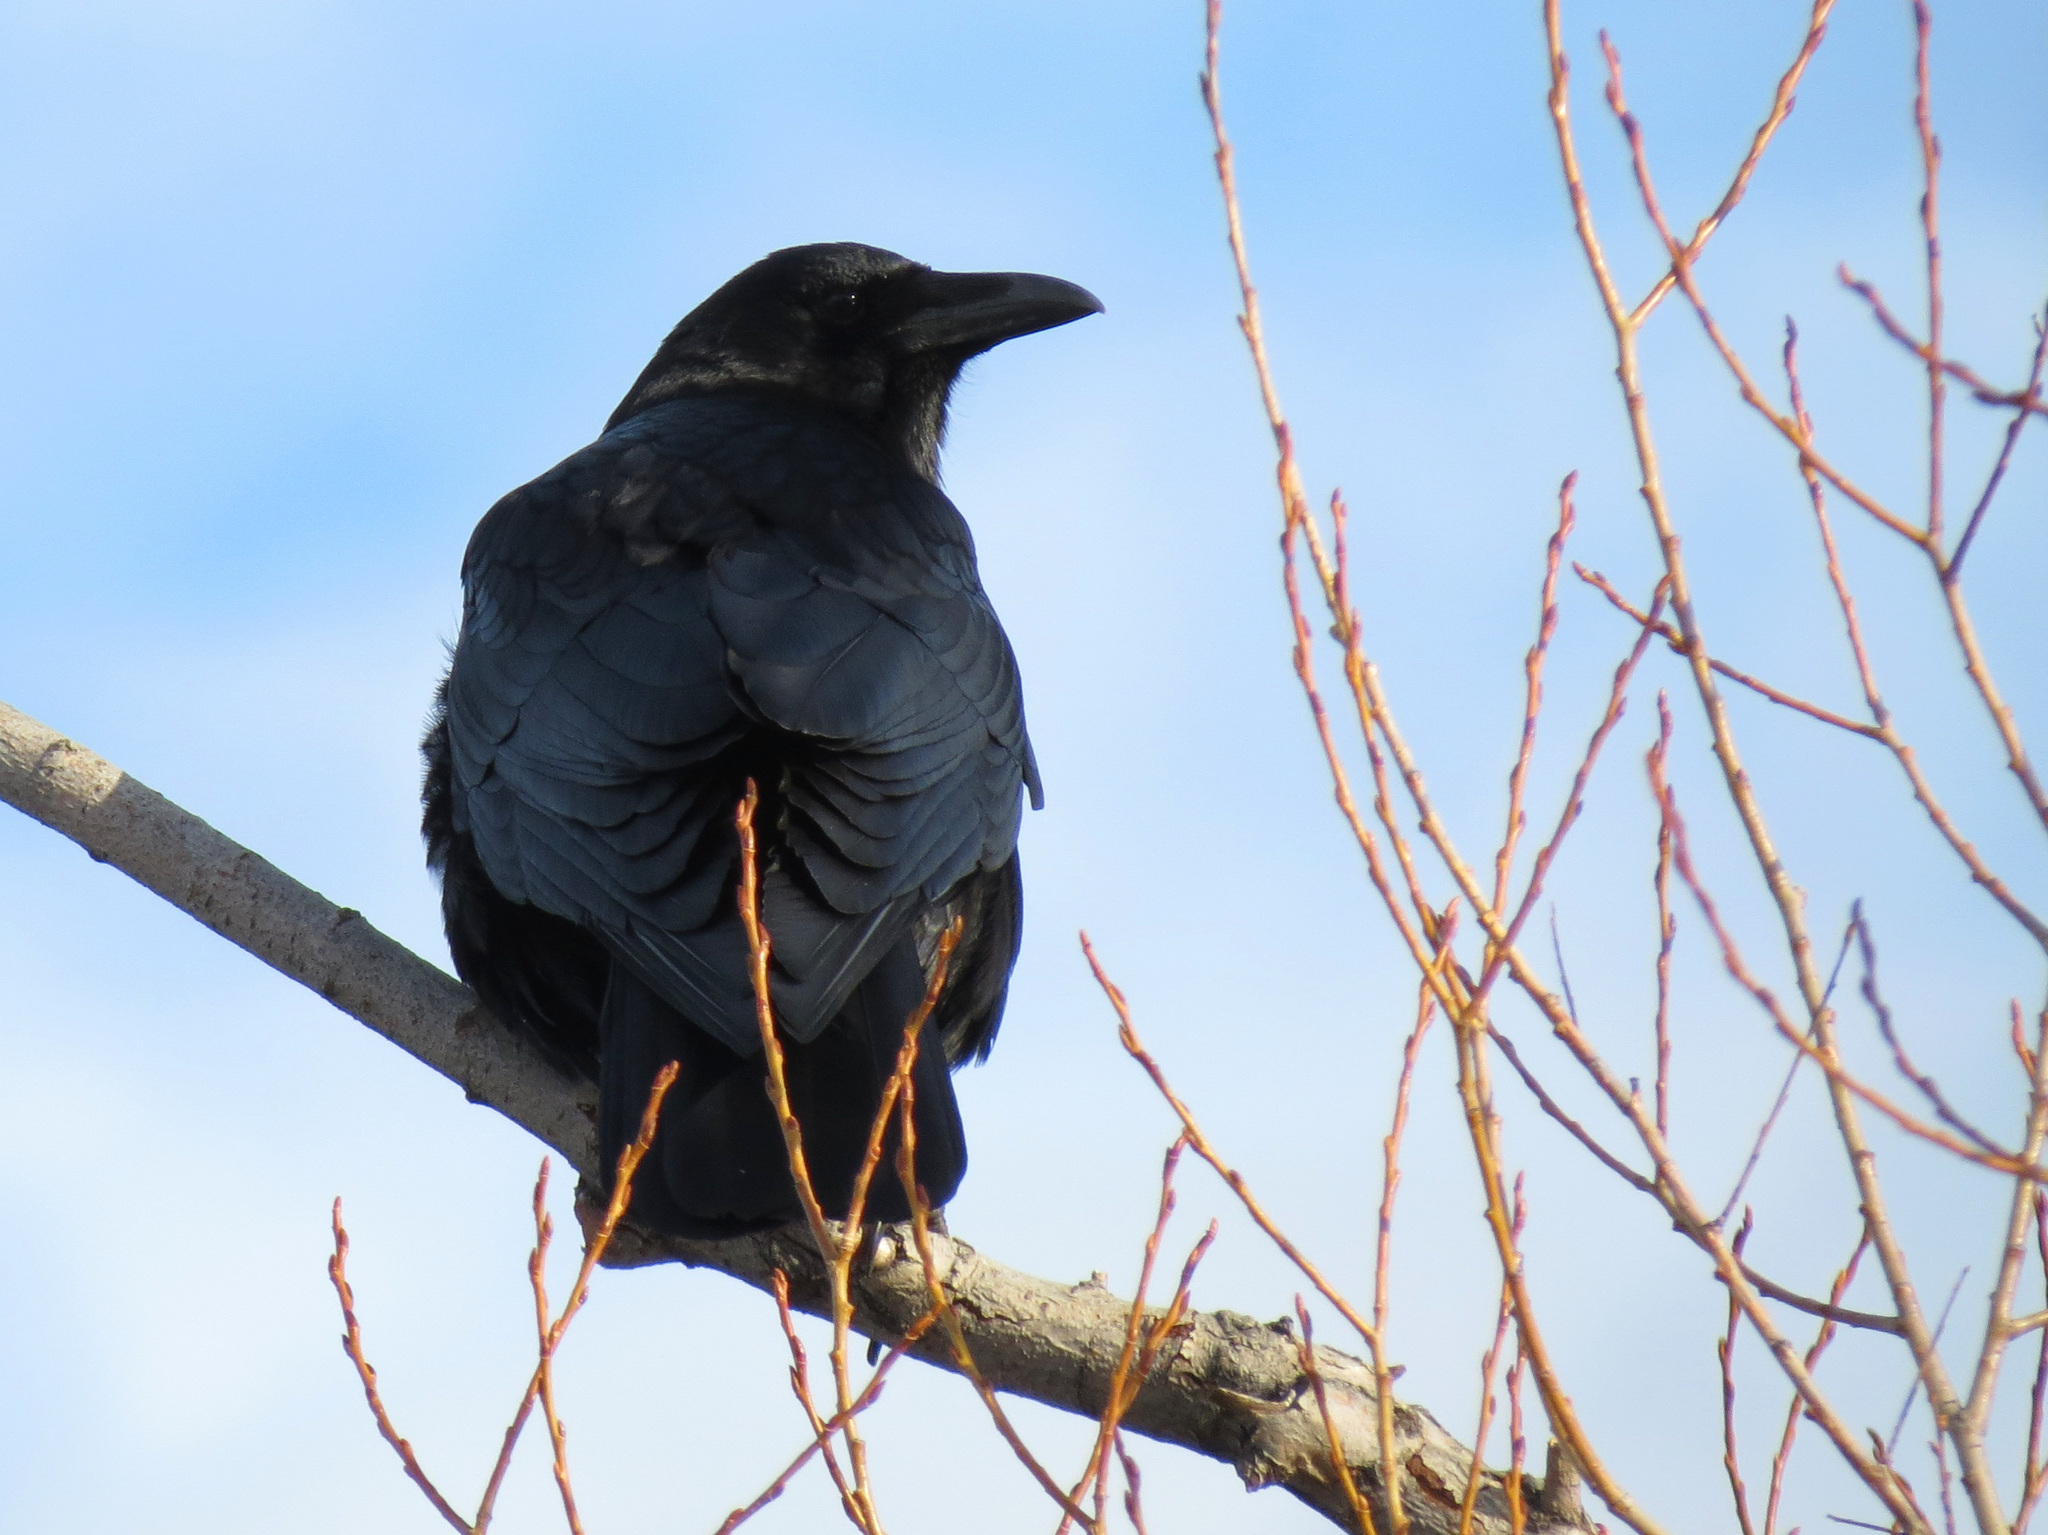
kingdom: Animalia
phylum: Chordata
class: Aves
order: Passeriformes
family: Corvidae
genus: Corvus
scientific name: Corvus brachyrhynchos
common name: American crow
